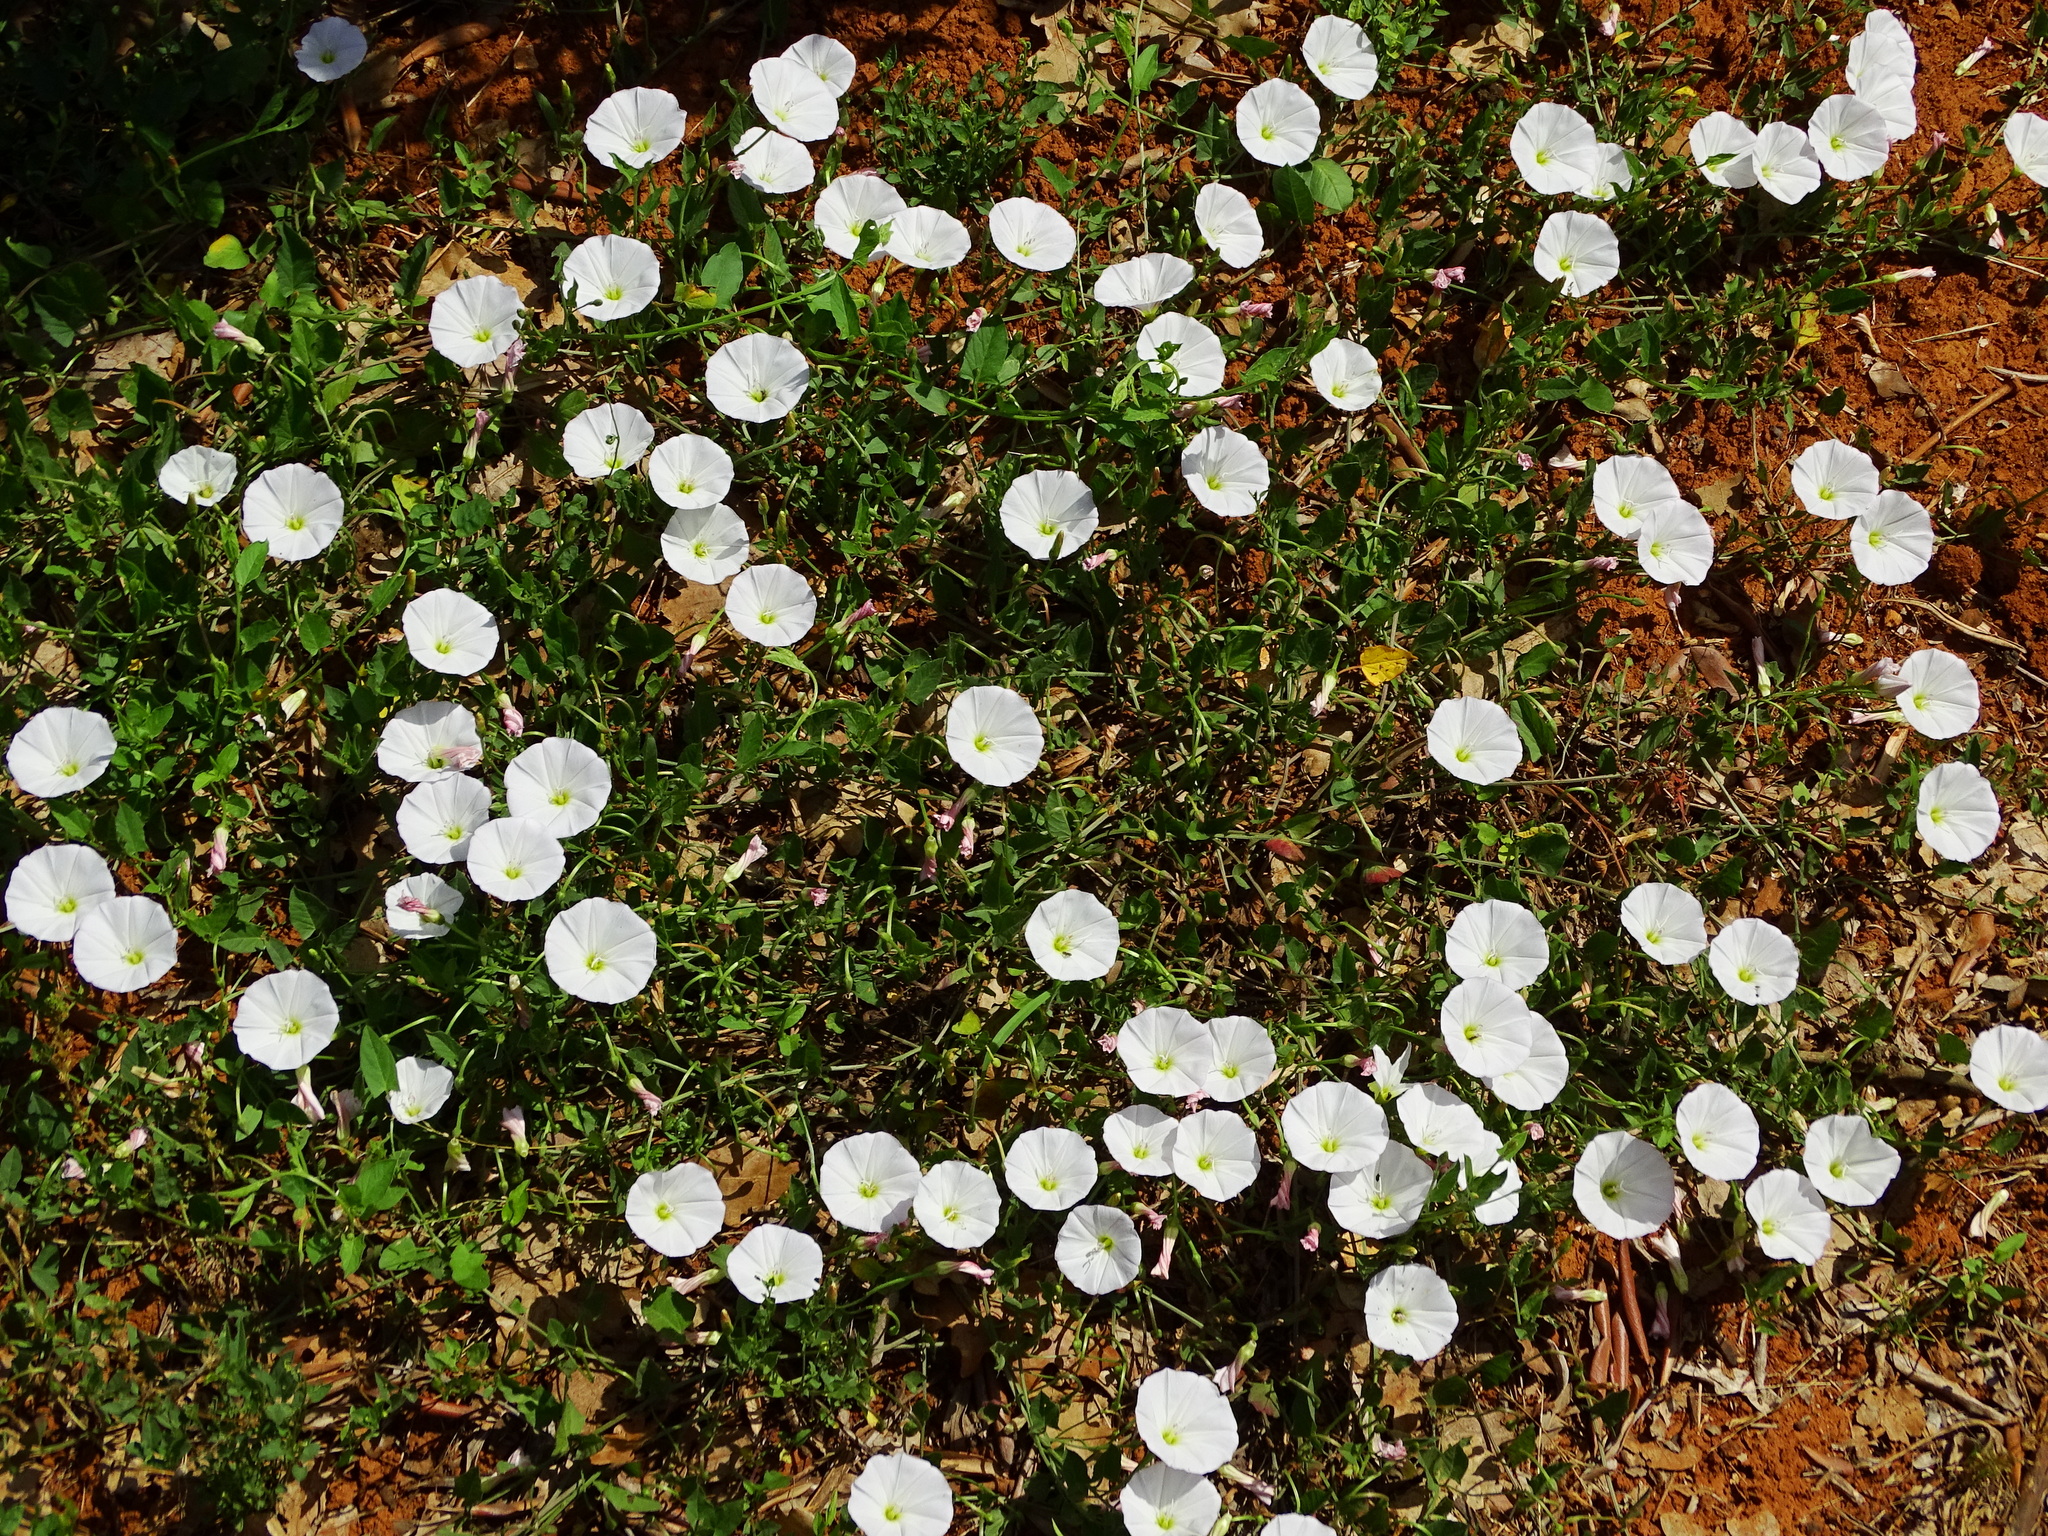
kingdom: Plantae
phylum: Tracheophyta
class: Magnoliopsida
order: Solanales
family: Convolvulaceae
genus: Convolvulus
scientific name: Convolvulus arvensis
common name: Field bindweed
